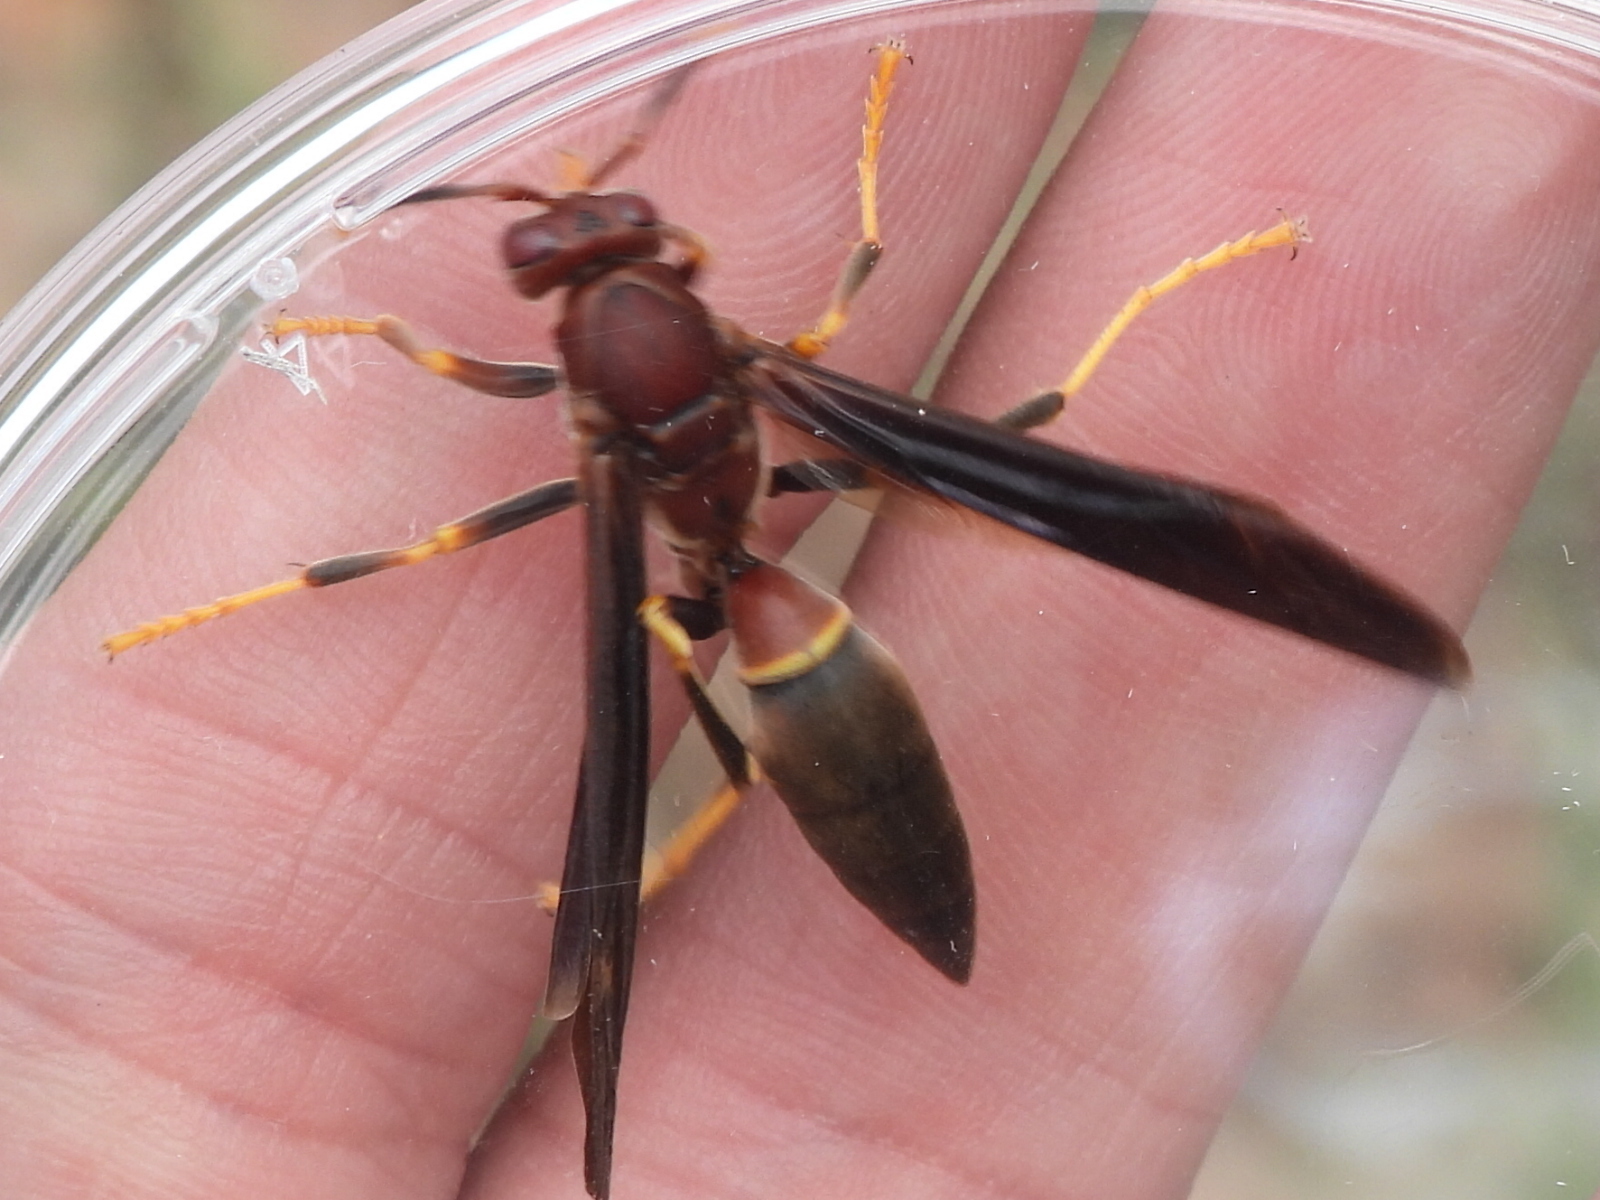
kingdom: Animalia
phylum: Arthropoda
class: Insecta
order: Hymenoptera
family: Eumenidae
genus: Polistes
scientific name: Polistes annularis
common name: Ringed paper wasp
